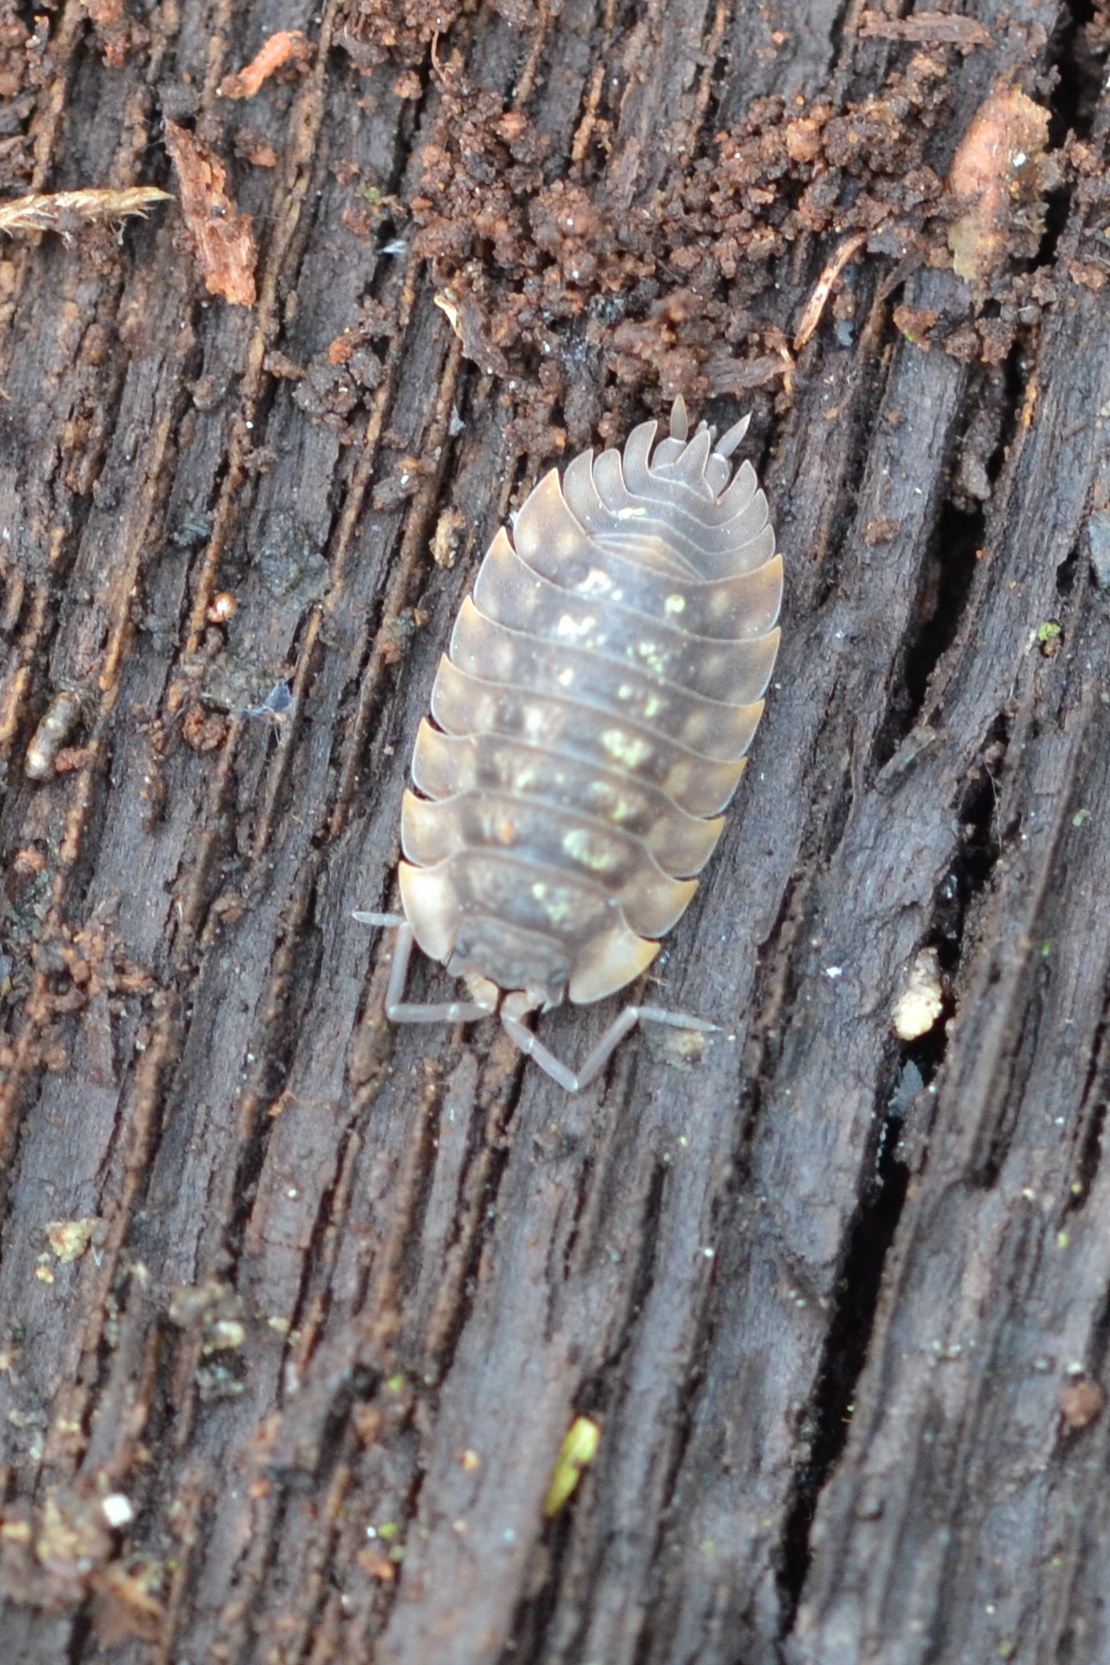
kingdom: Animalia
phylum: Arthropoda
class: Malacostraca
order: Isopoda
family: Oniscidae
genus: Oniscus
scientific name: Oniscus asellus
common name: Common shiny woodlouse
